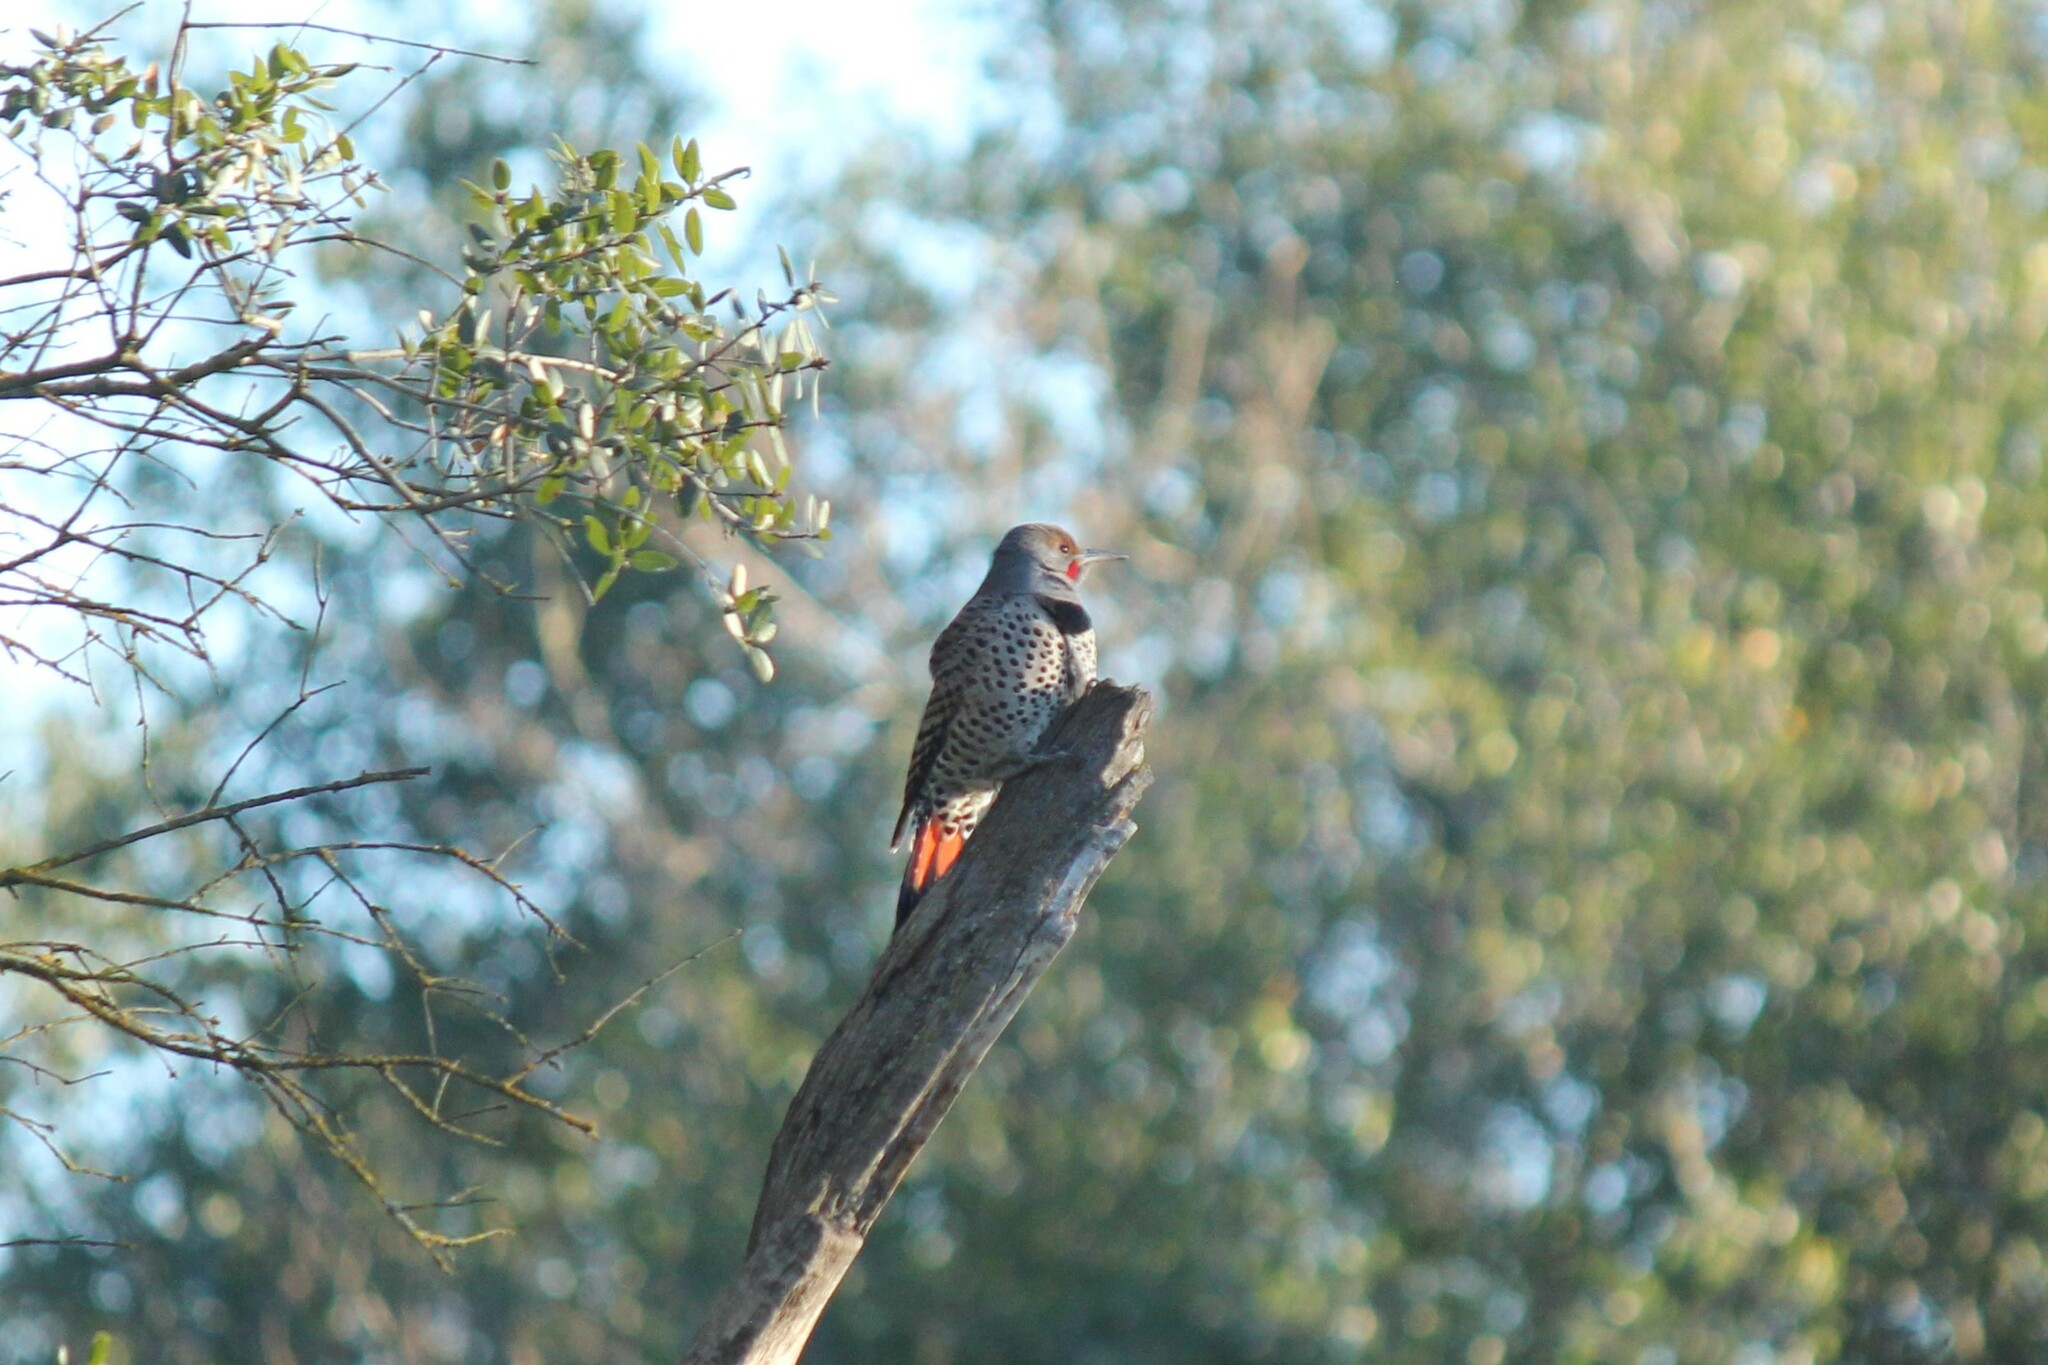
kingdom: Animalia
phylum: Chordata
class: Aves
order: Piciformes
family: Picidae
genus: Colaptes
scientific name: Colaptes auratus
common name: Northern flicker
